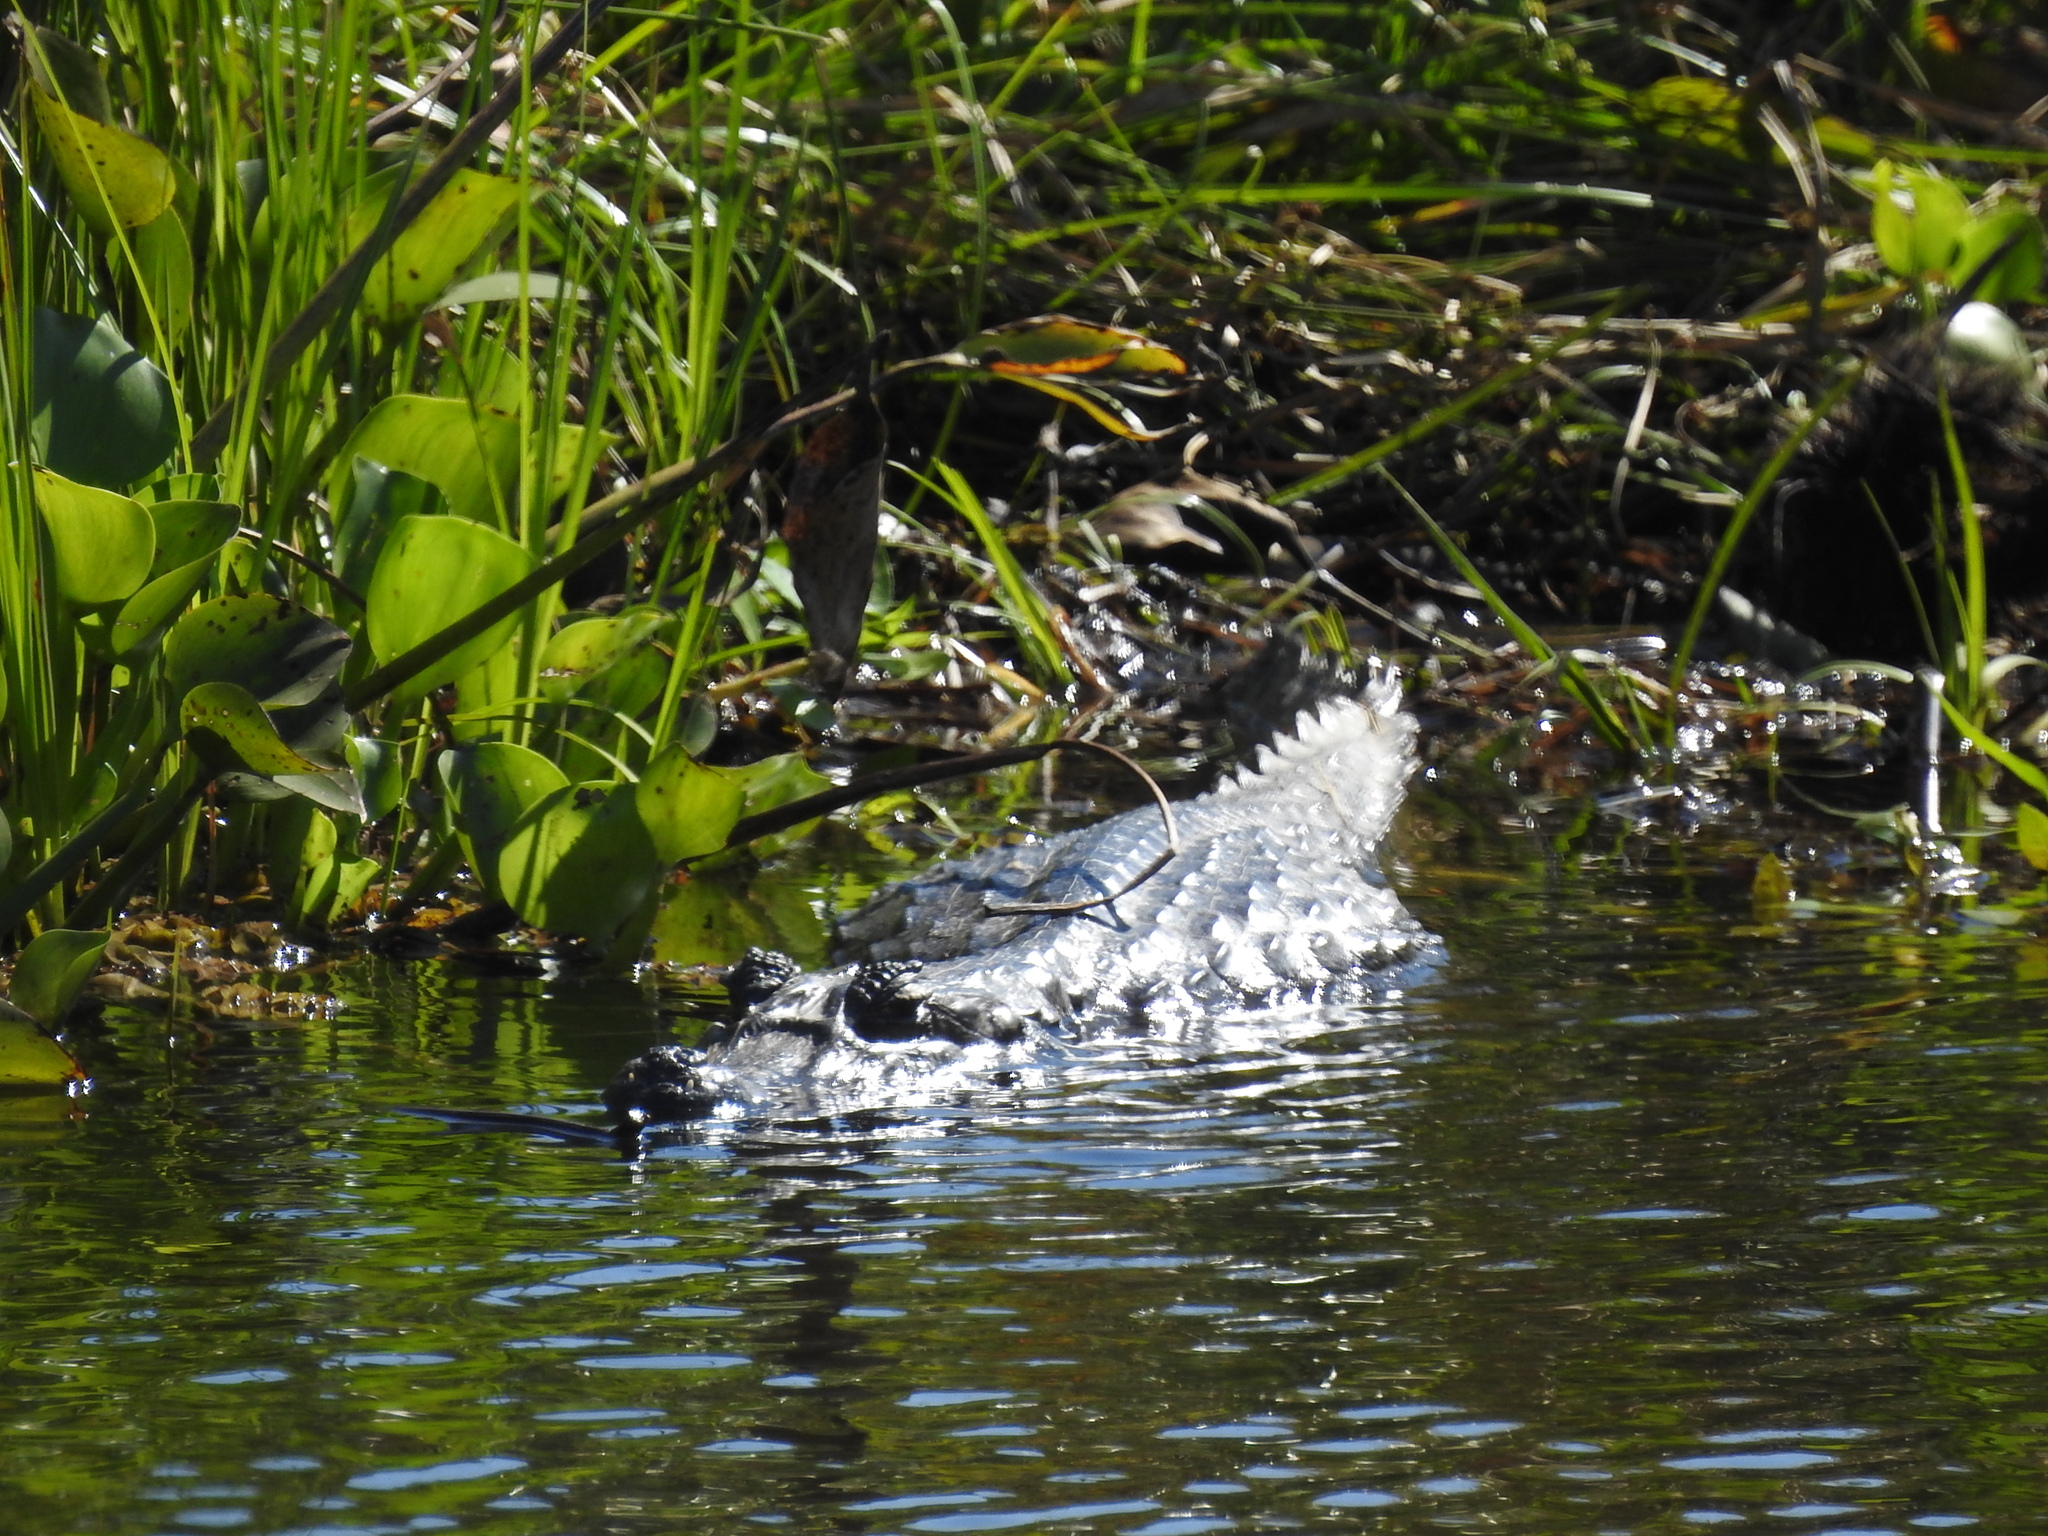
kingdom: Animalia
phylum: Chordata
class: Crocodylia
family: Alligatoridae
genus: Caiman
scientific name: Caiman yacare
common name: Yacare caiman
